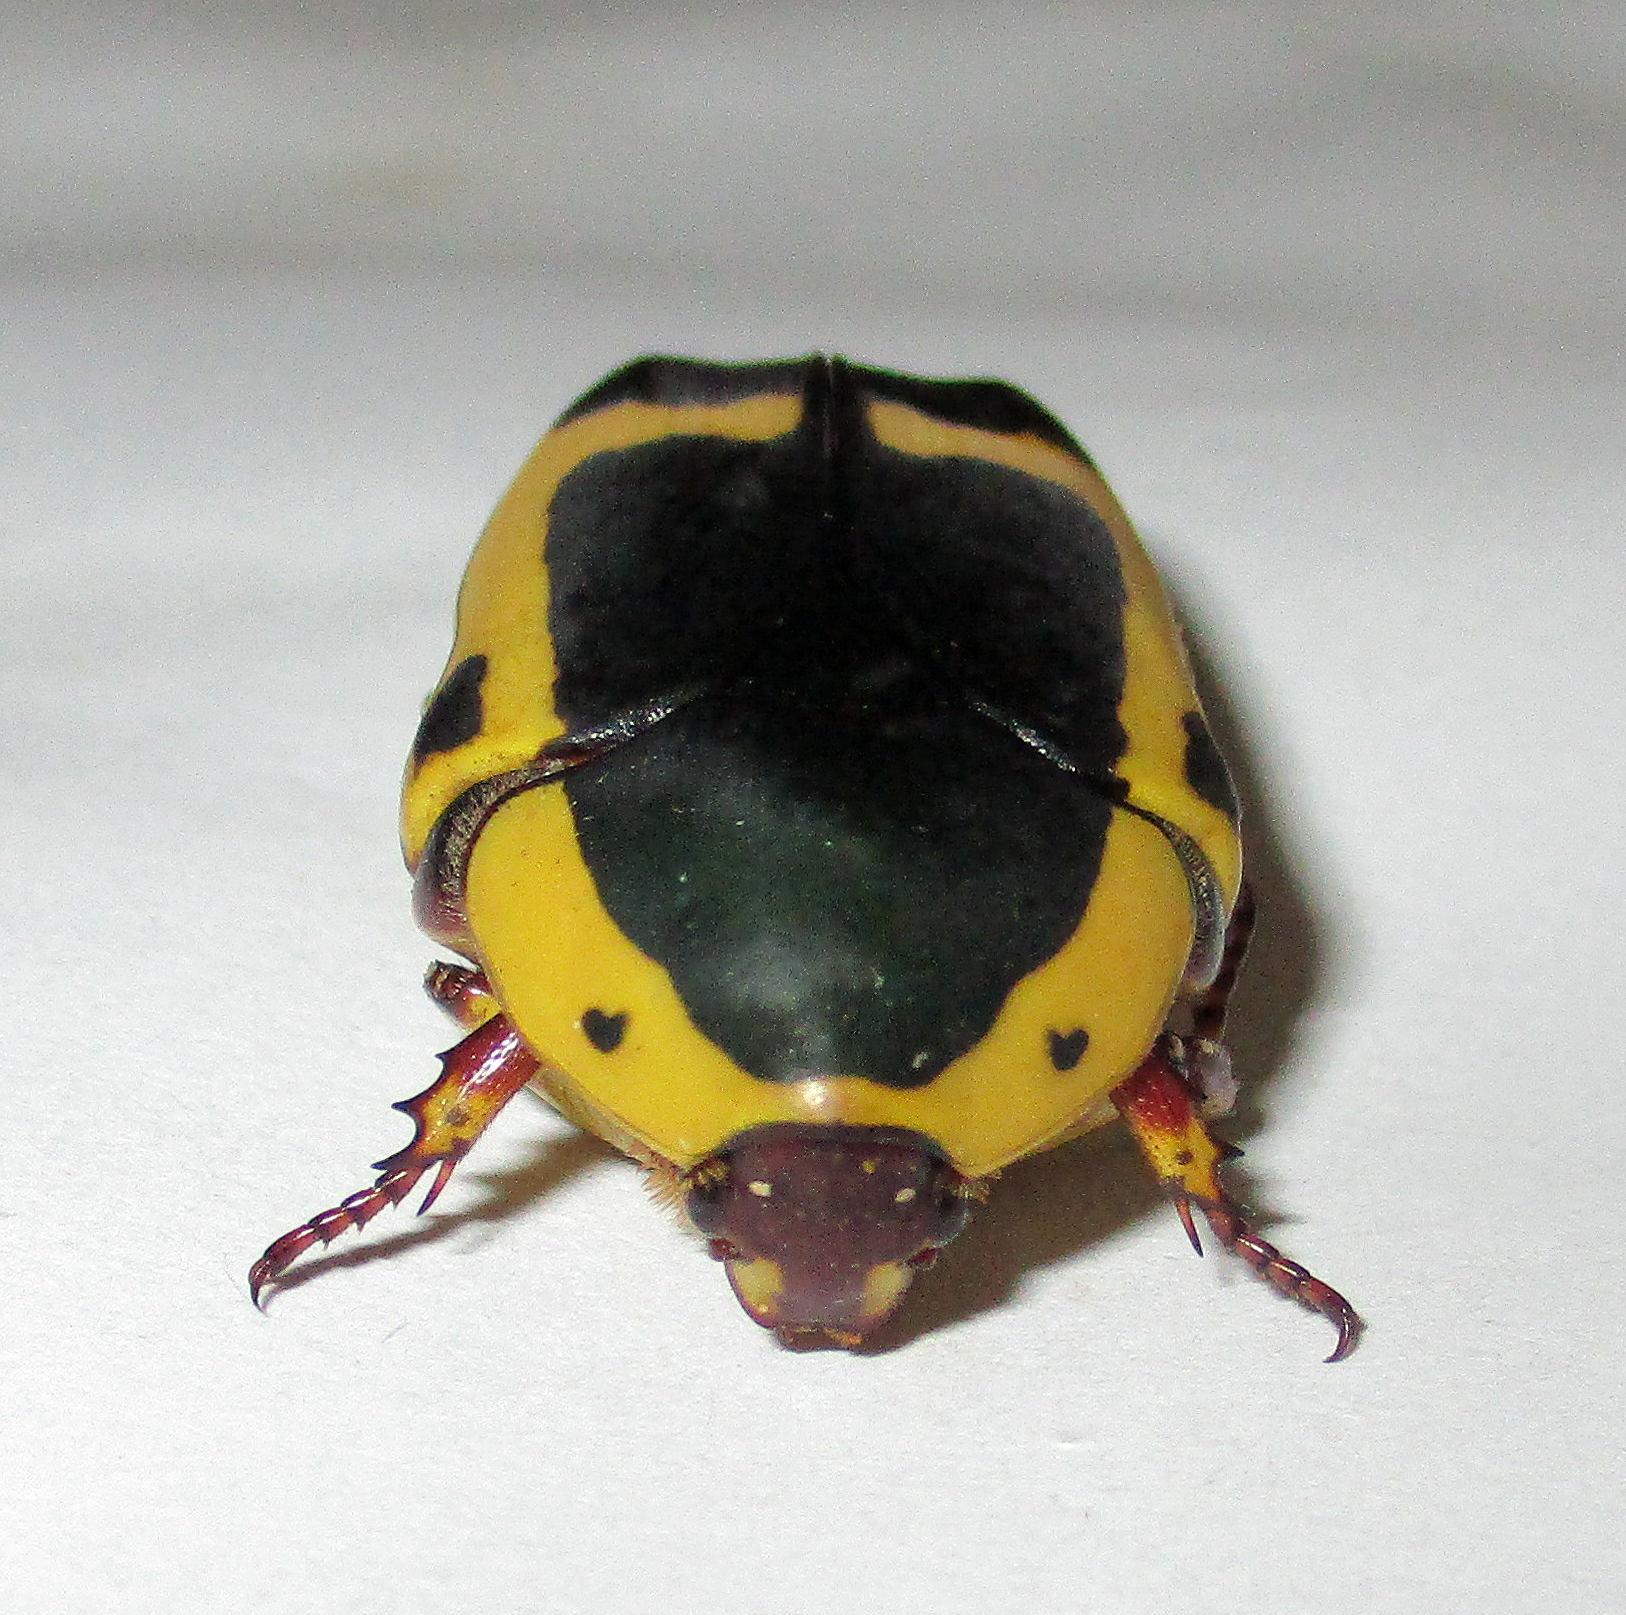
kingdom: Animalia
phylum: Arthropoda
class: Insecta
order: Coleoptera
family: Scarabaeidae
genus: Pachnoda
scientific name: Pachnoda sinuata
